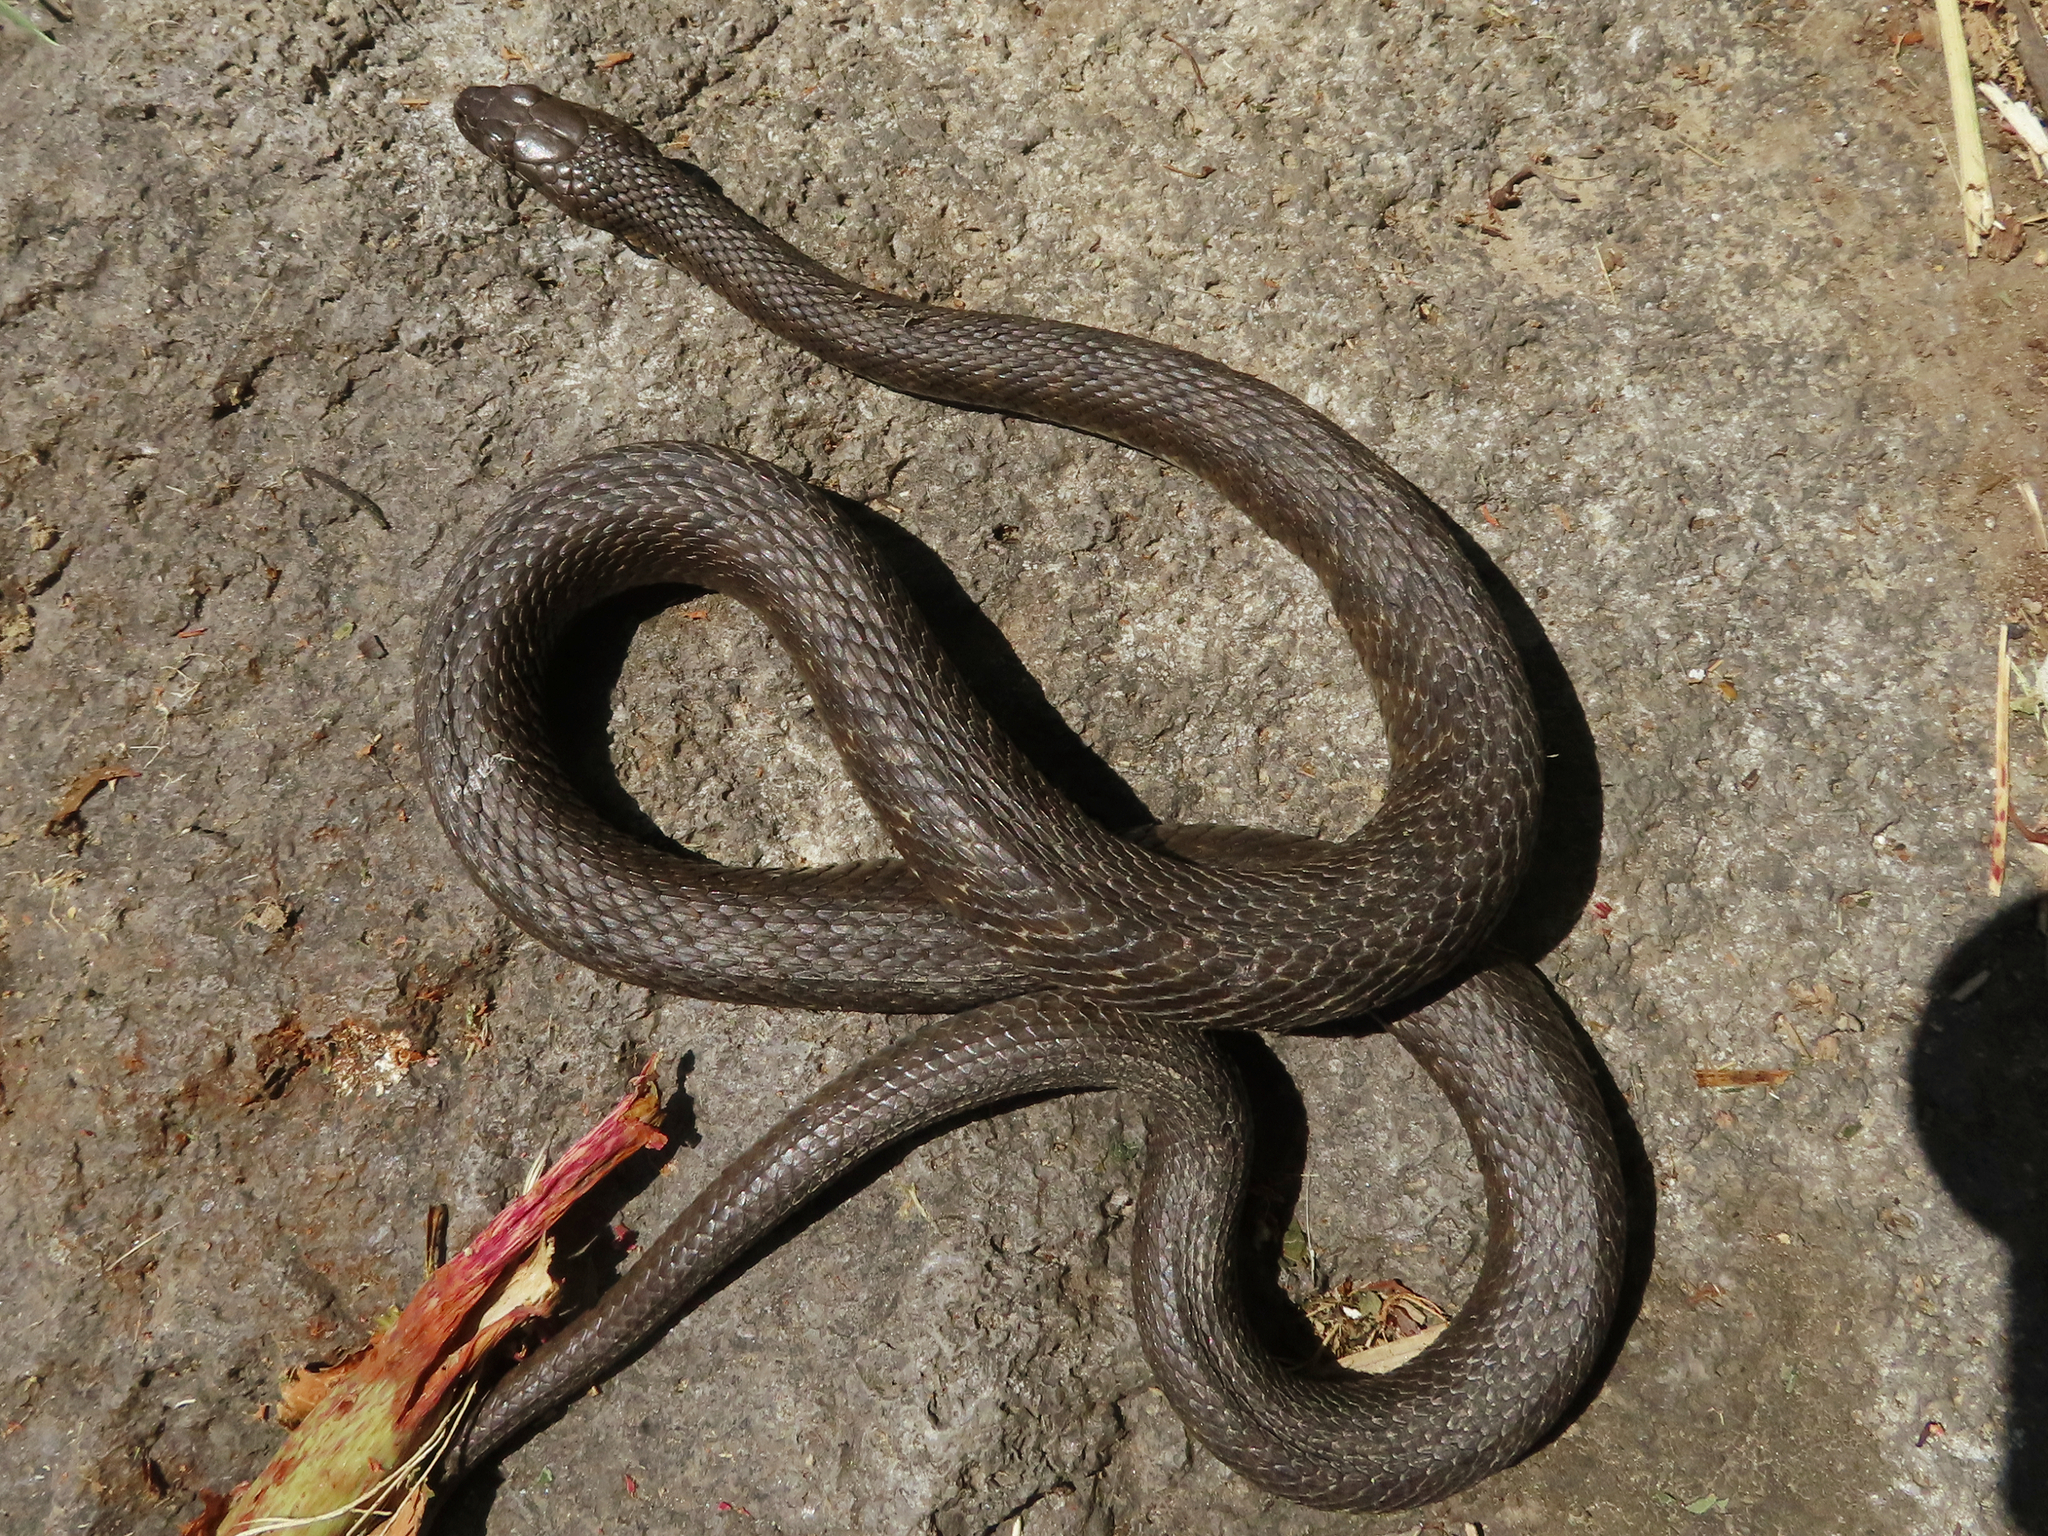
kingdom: Animalia
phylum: Chordata
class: Squamata
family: Colubridae
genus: Natrix
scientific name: Natrix tessellata
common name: Dice snake
